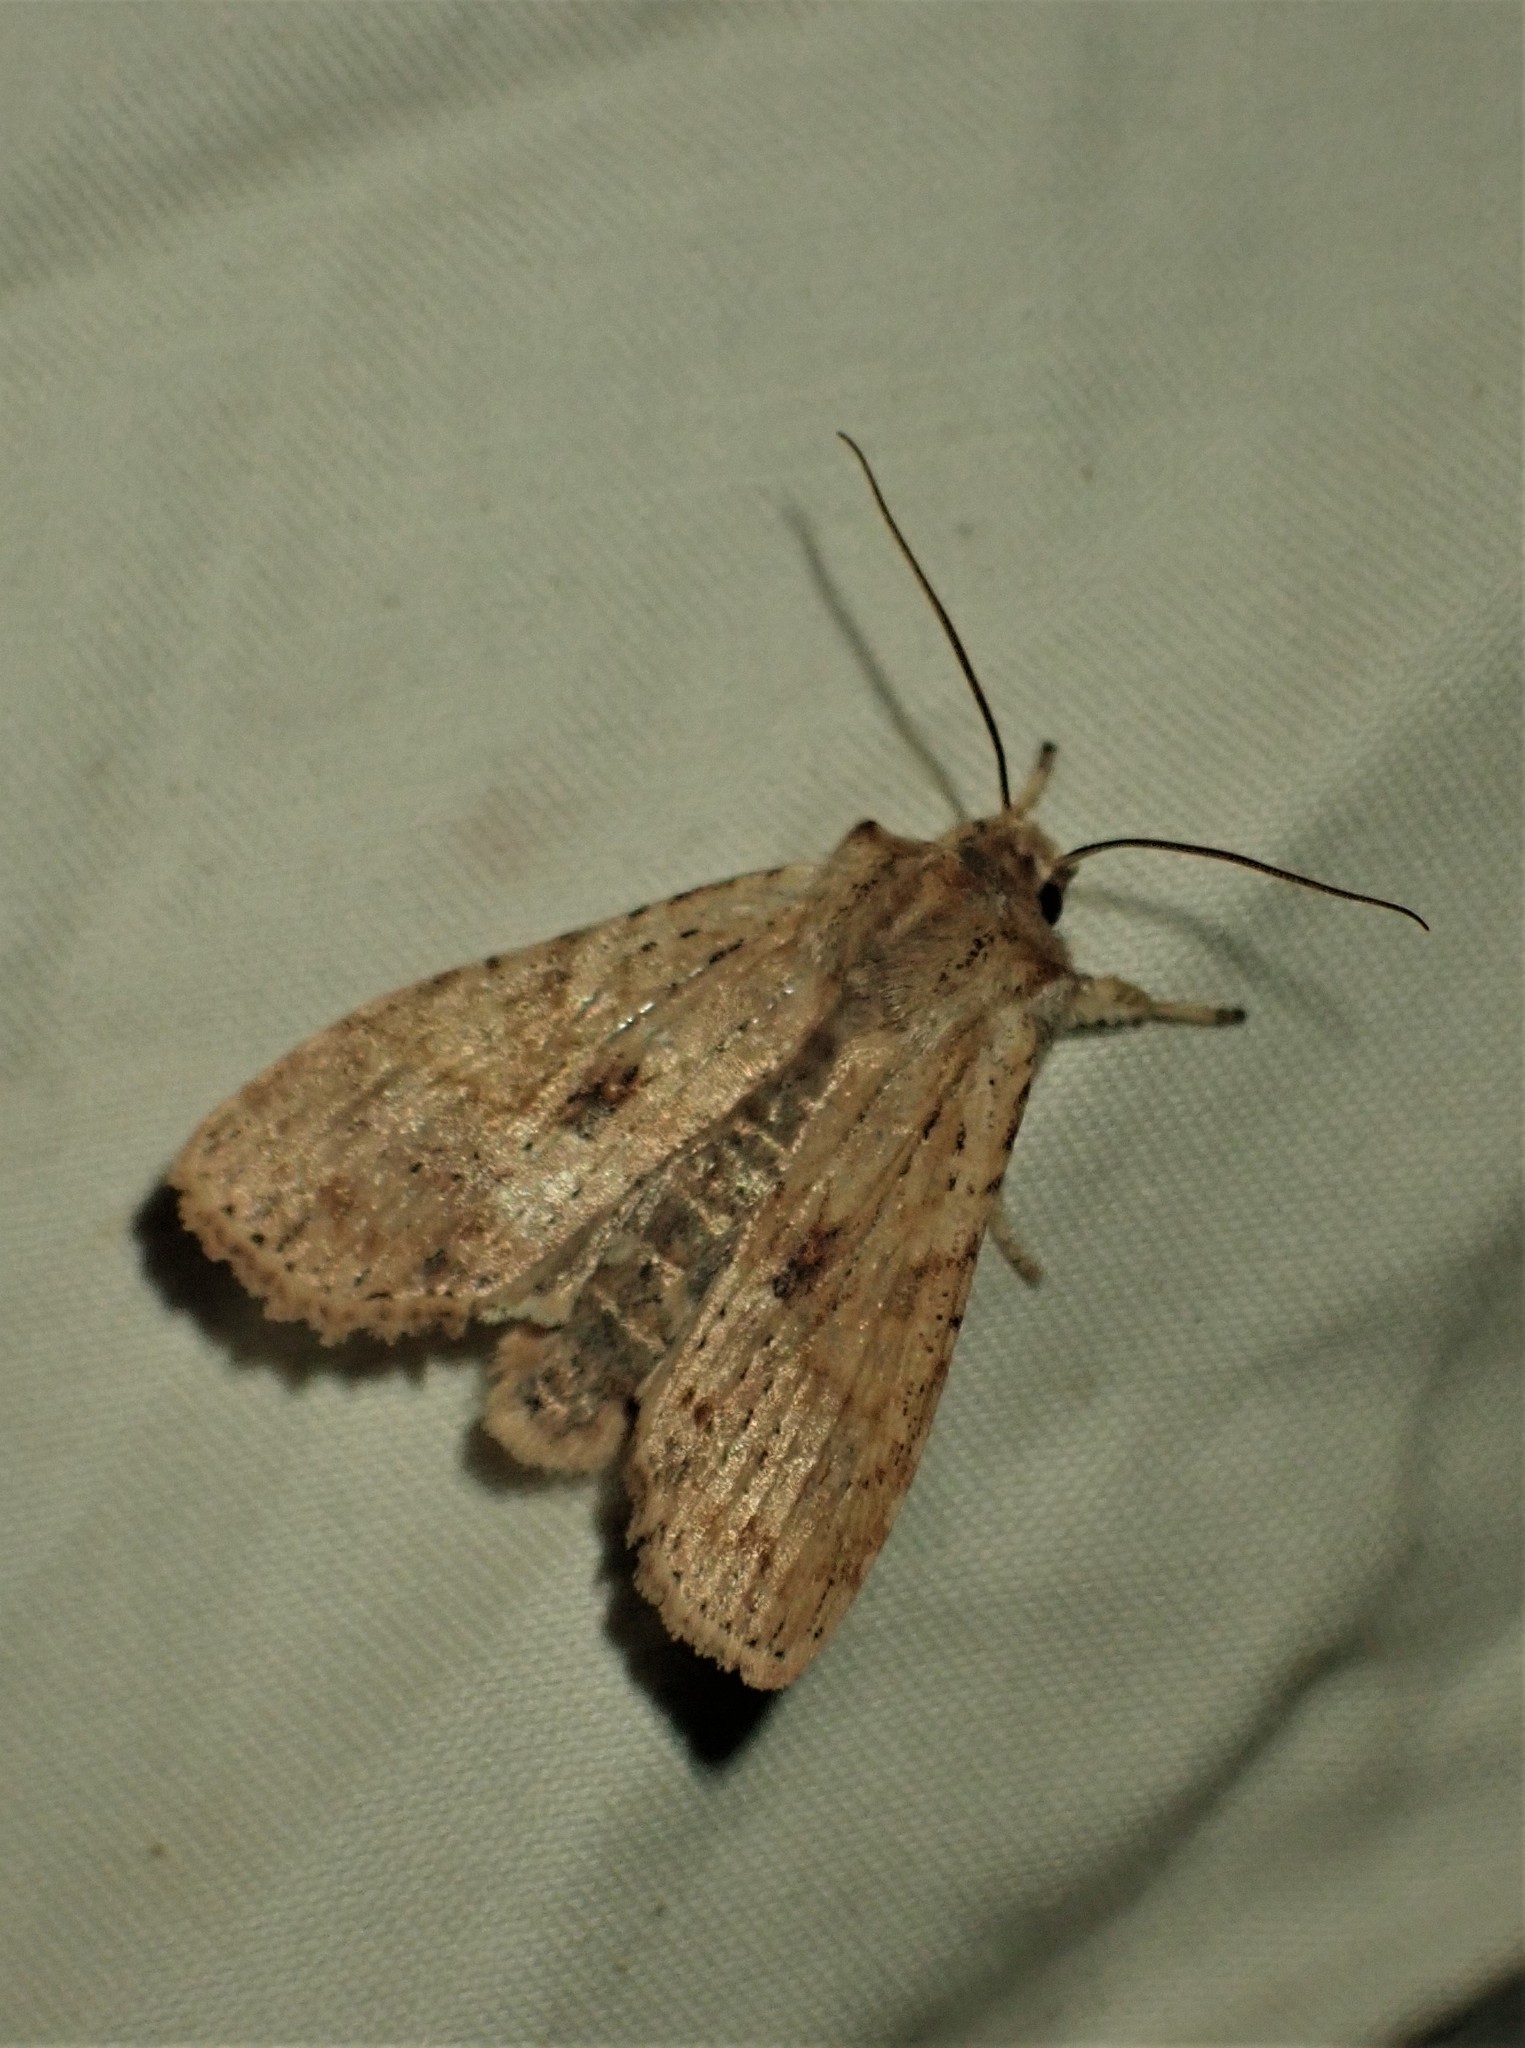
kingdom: Animalia
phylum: Arthropoda
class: Insecta
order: Lepidoptera
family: Noctuidae
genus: Lithophane
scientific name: Lithophane innominata
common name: Nameless pinion moth
